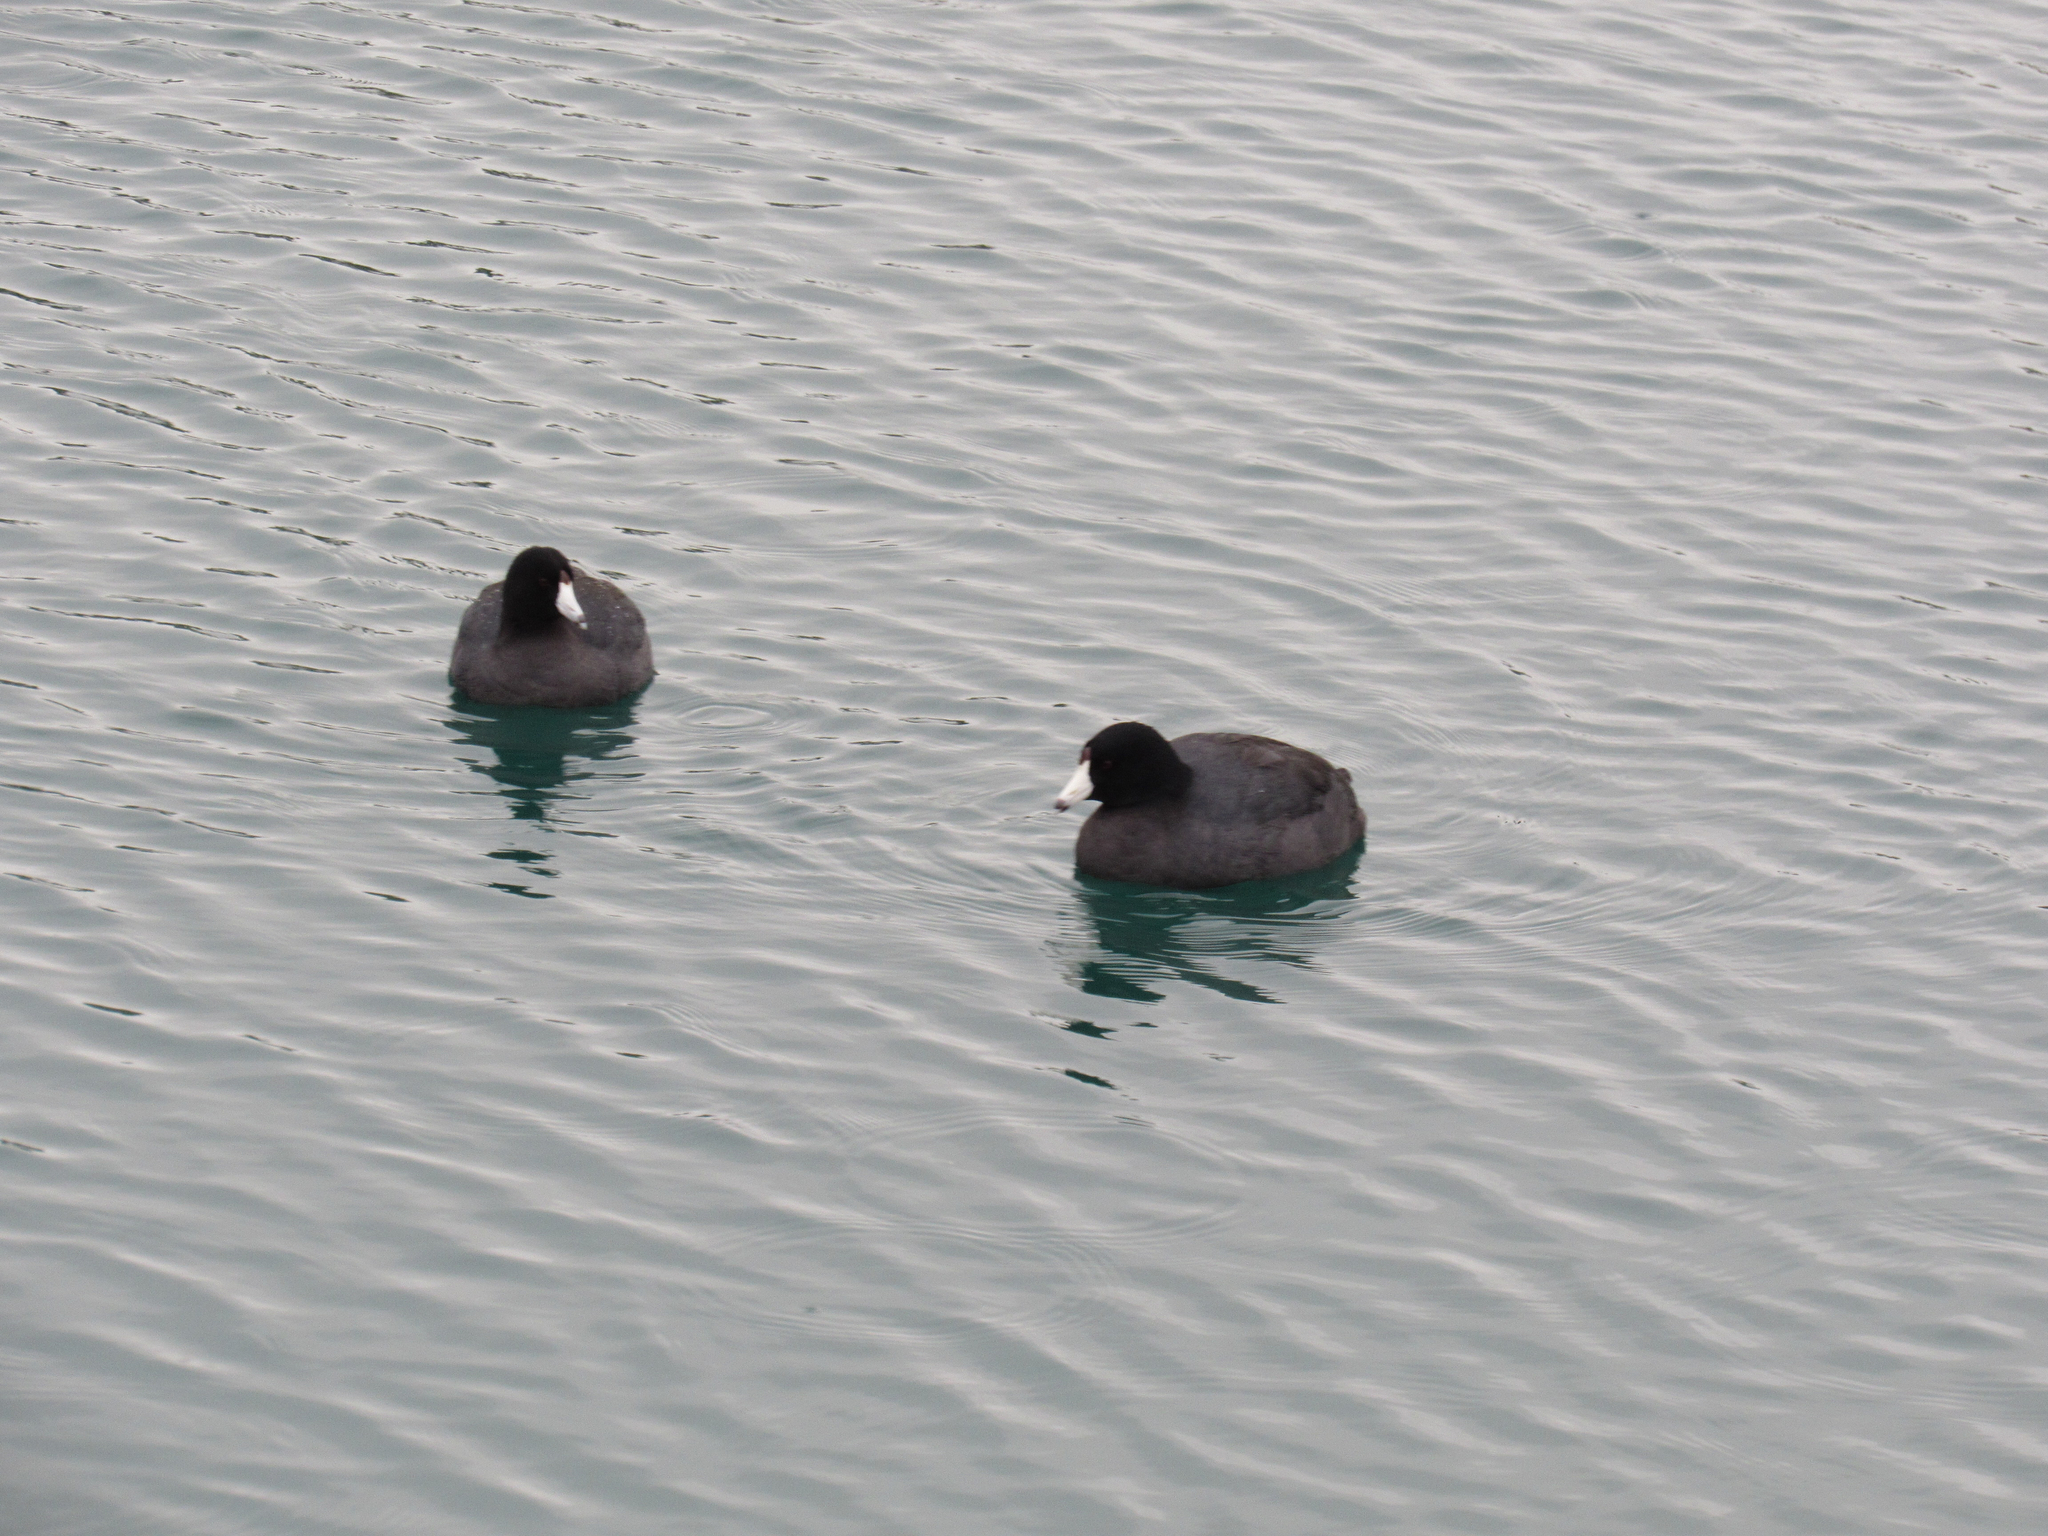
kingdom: Animalia
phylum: Chordata
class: Aves
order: Gruiformes
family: Rallidae
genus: Fulica
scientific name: Fulica americana
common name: American coot
